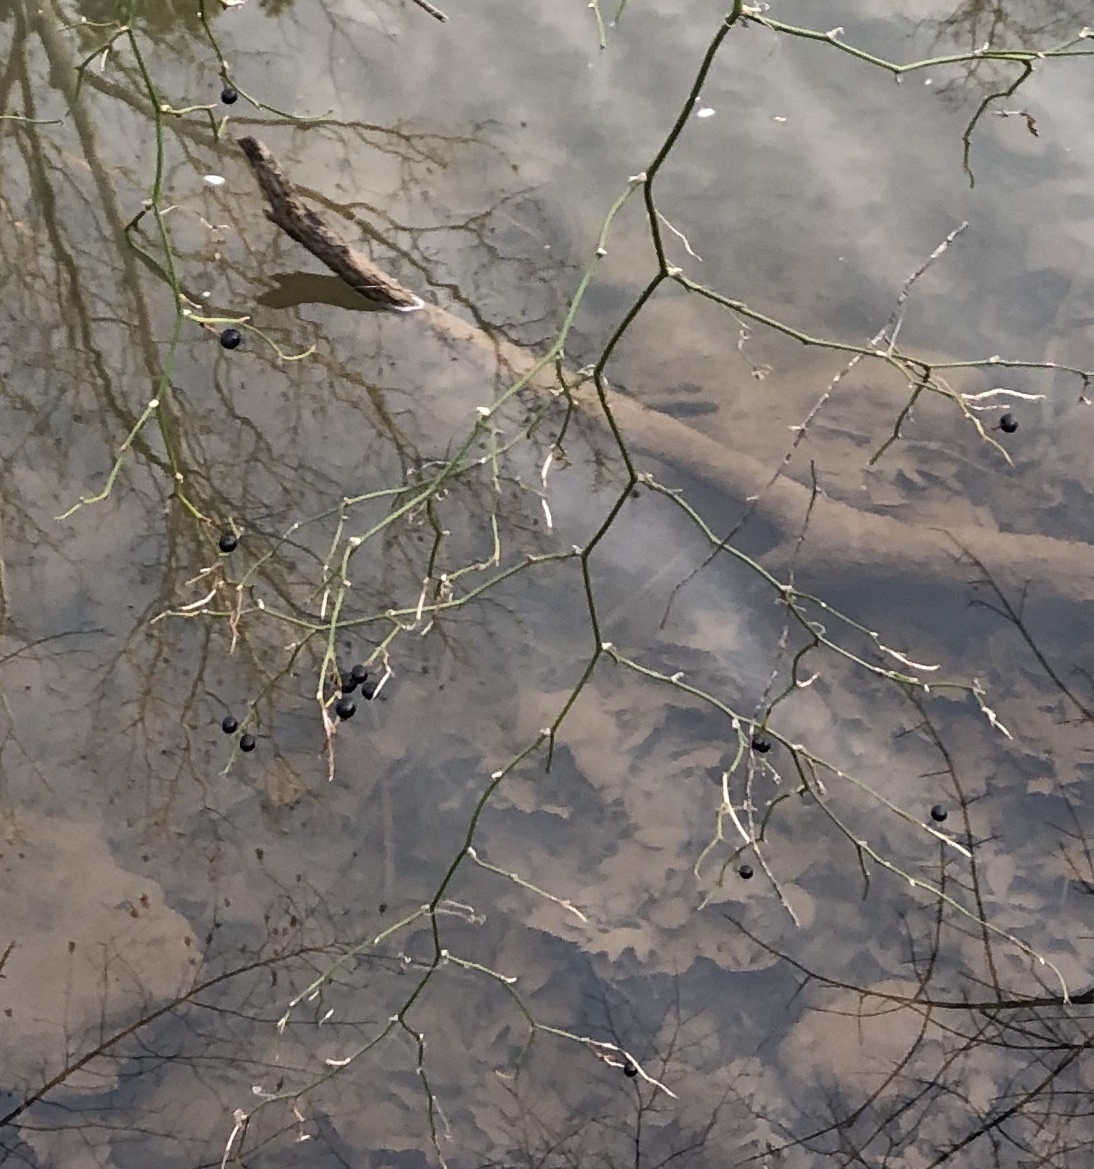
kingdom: Plantae
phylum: Tracheophyta
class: Liliopsida
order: Liliales
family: Smilacaceae
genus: Smilax
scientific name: Smilax rotundifolia
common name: Bullbriar
